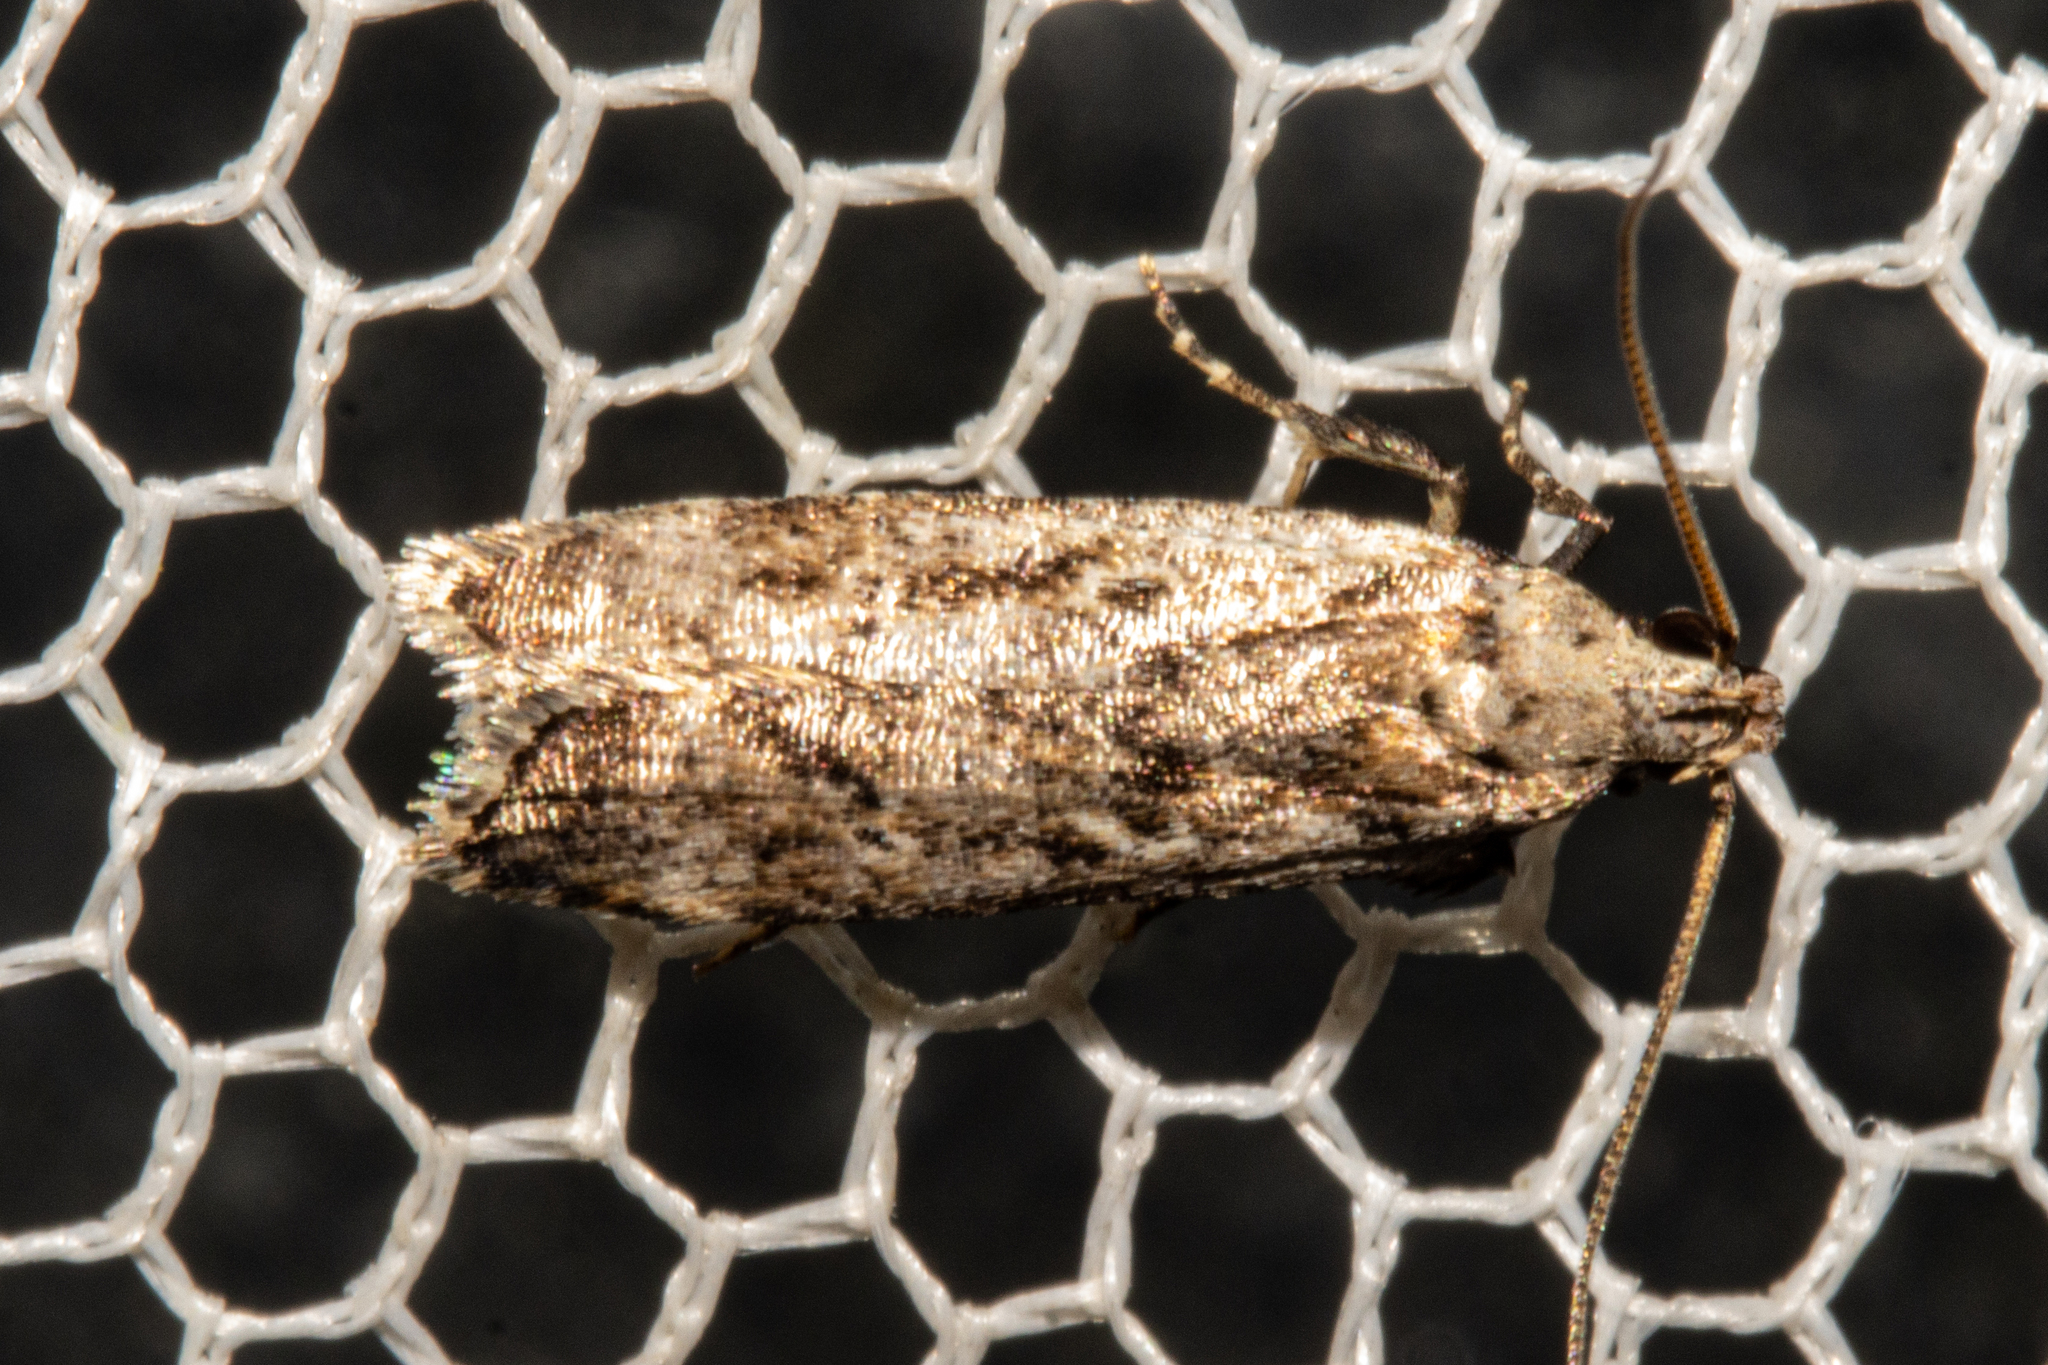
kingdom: Animalia
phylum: Arthropoda
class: Insecta
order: Lepidoptera
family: Gelechiidae
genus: Anisoplaca
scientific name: Anisoplaca achyrota
